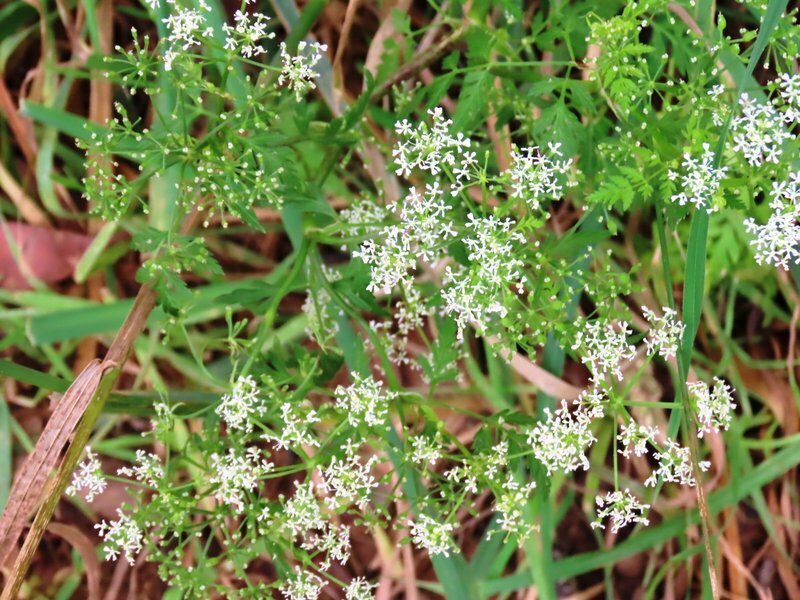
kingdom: Plantae
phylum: Tracheophyta
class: Magnoliopsida
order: Apiales
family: Apiaceae
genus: Conium
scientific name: Conium maculatum
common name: Hemlock
